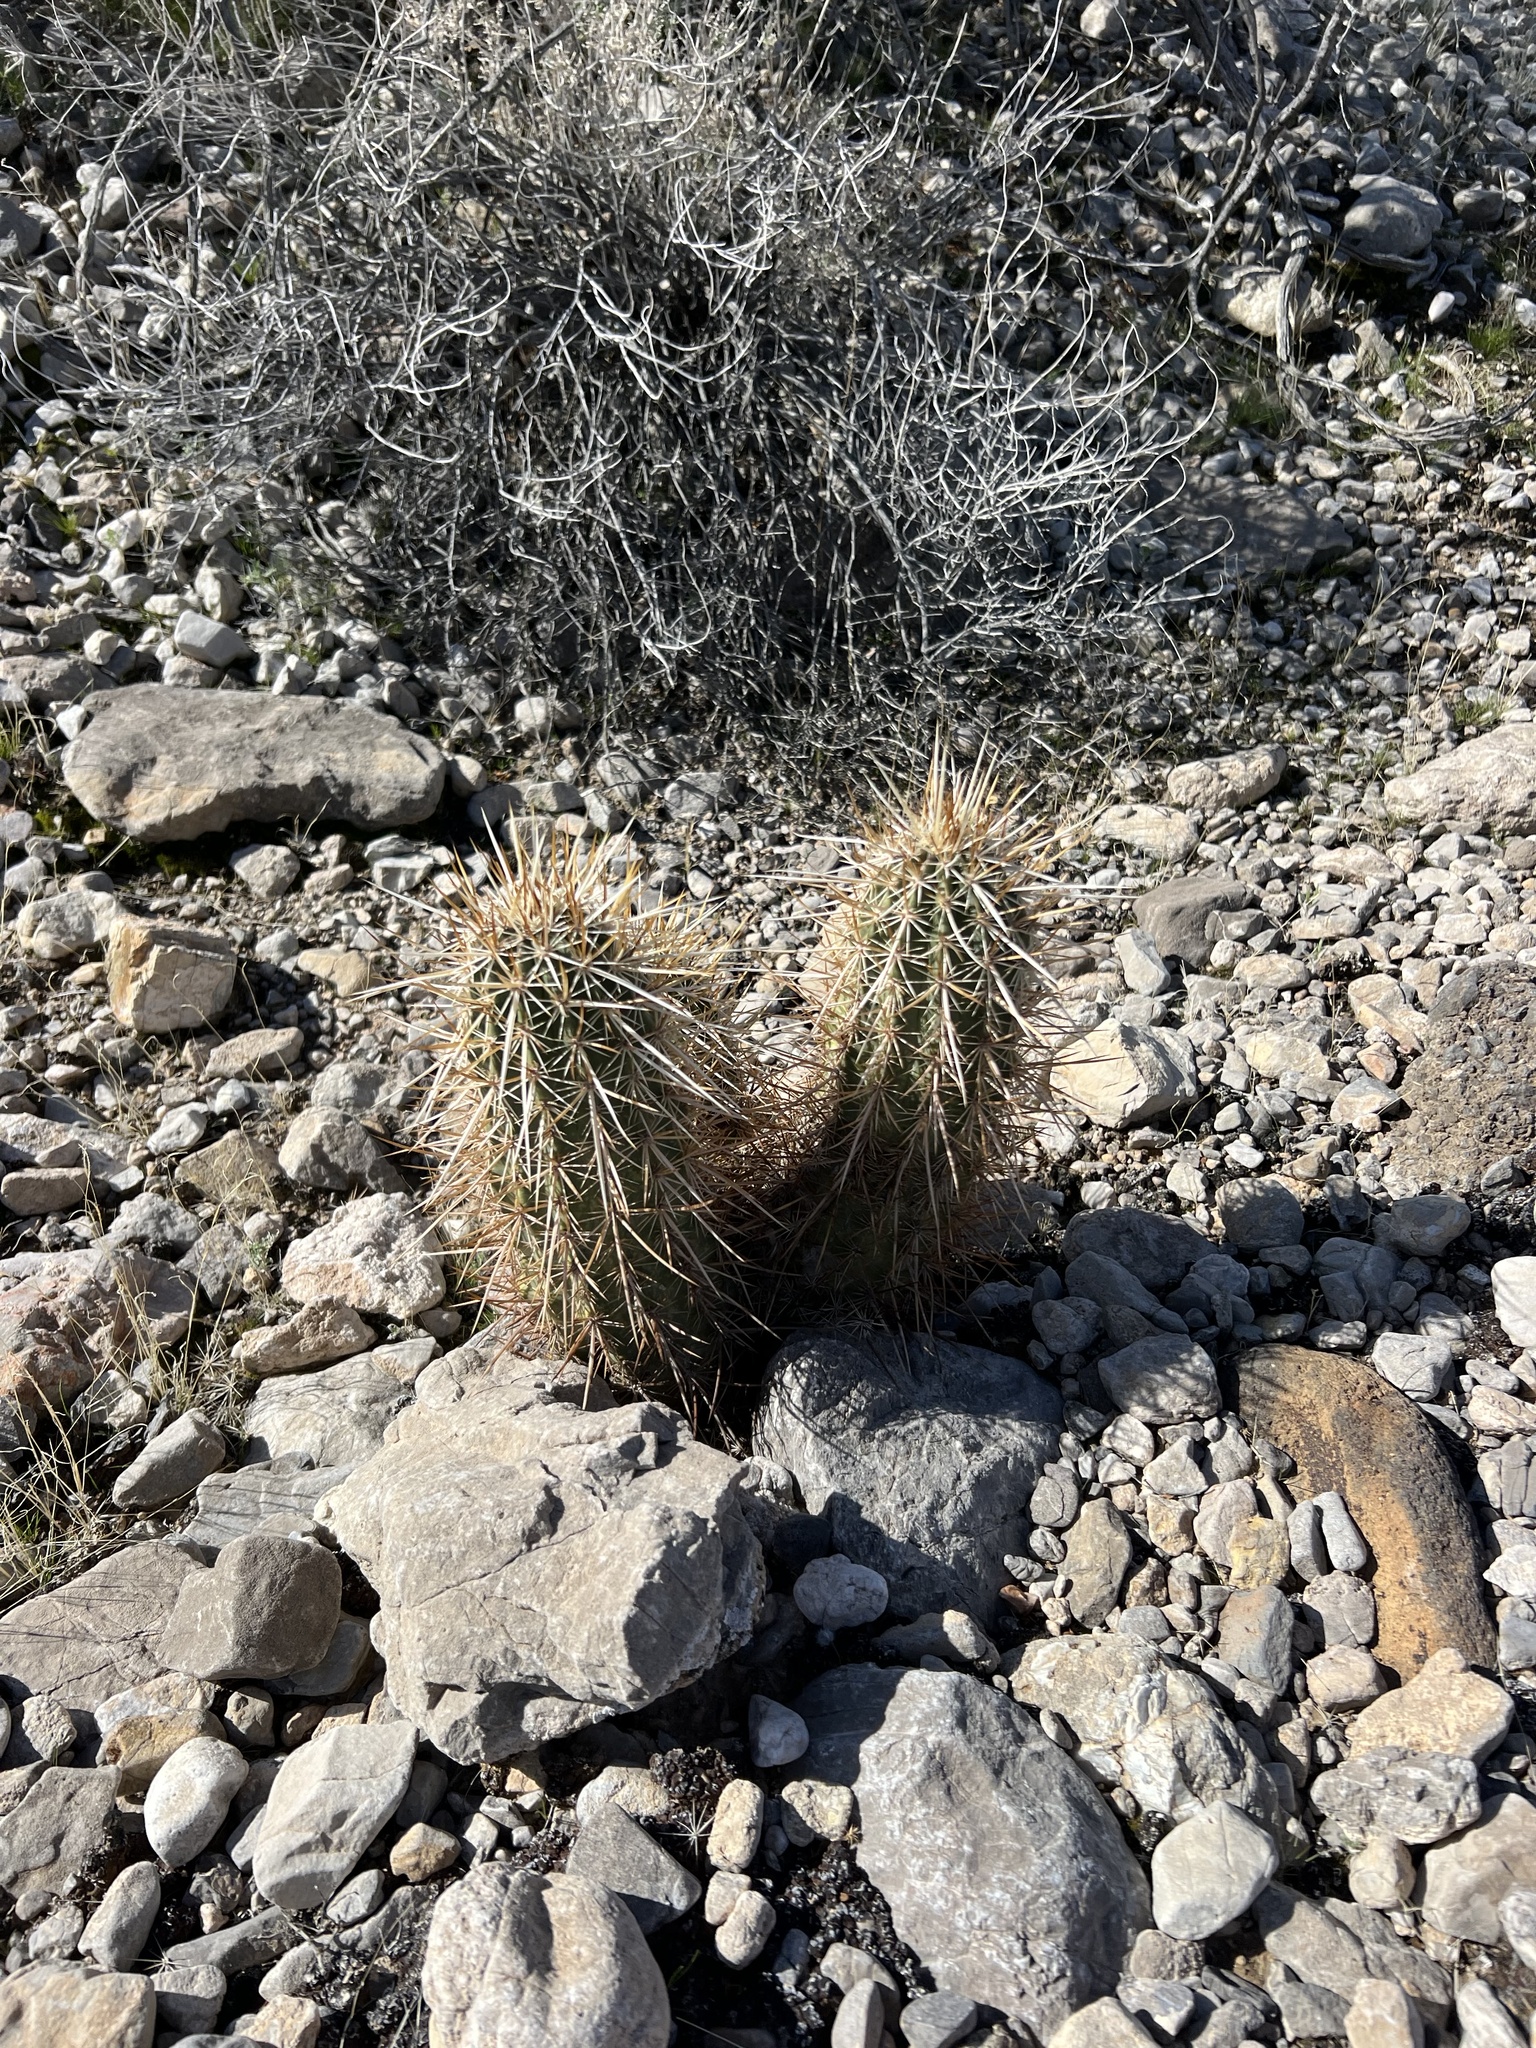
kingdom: Plantae
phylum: Tracheophyta
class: Magnoliopsida
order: Caryophyllales
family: Cactaceae
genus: Echinocereus
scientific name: Echinocereus engelmannii
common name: Engelmann's hedgehog cactus
